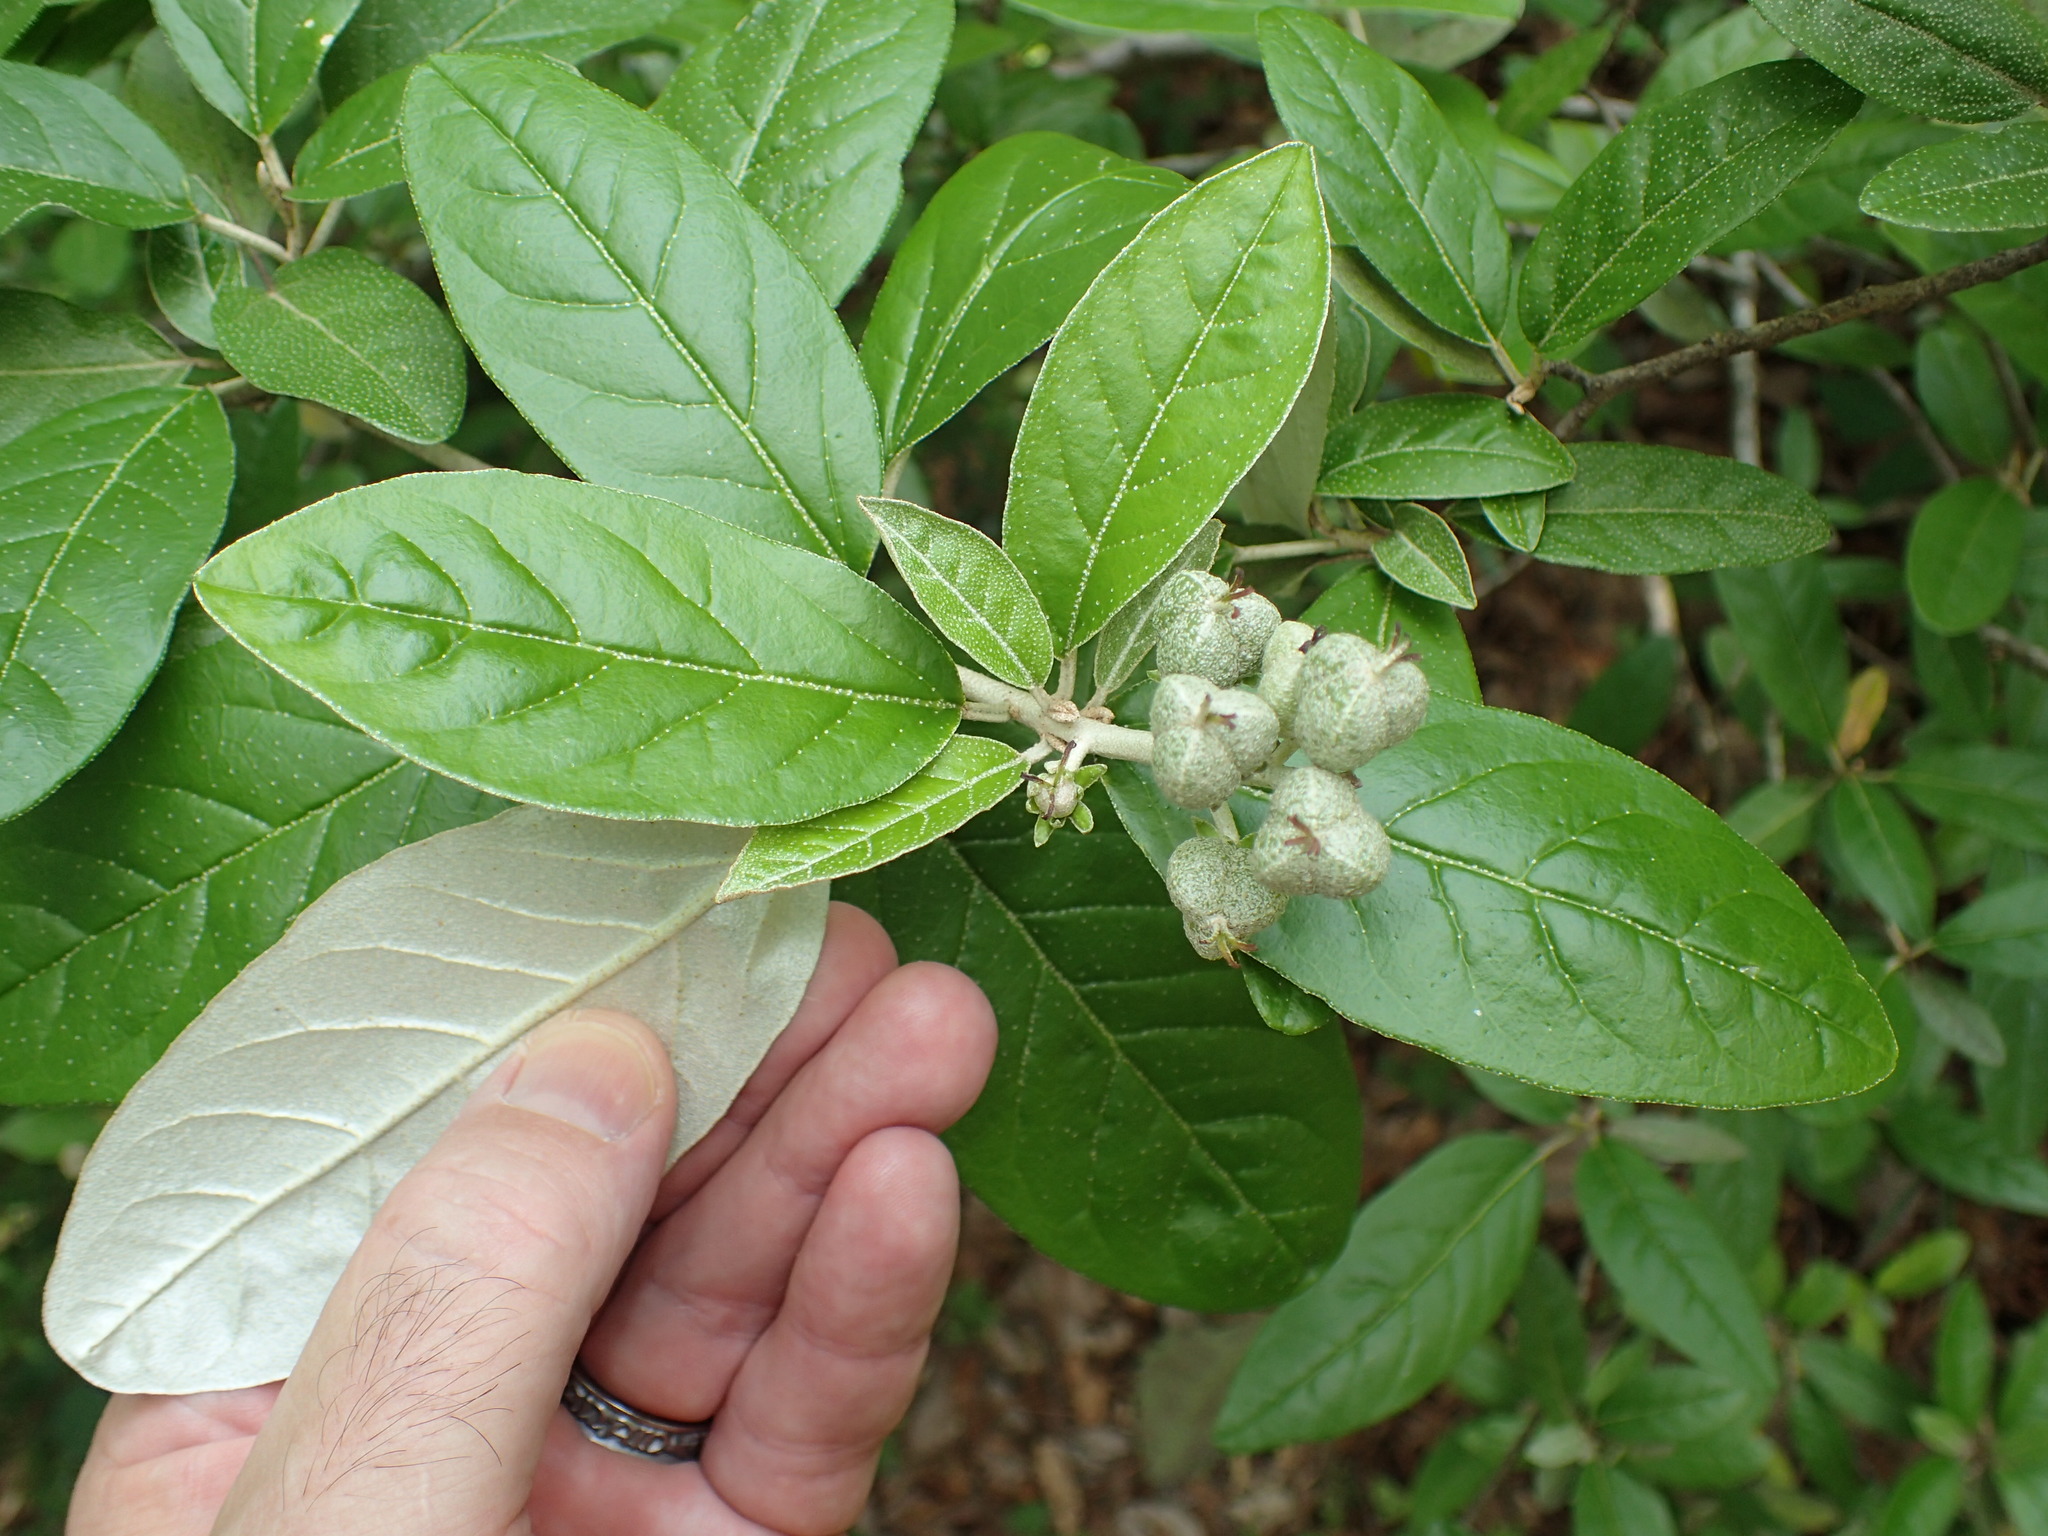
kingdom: Plantae
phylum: Tracheophyta
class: Magnoliopsida
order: Malpighiales
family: Euphorbiaceae
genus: Croton
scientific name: Croton alabamensis
